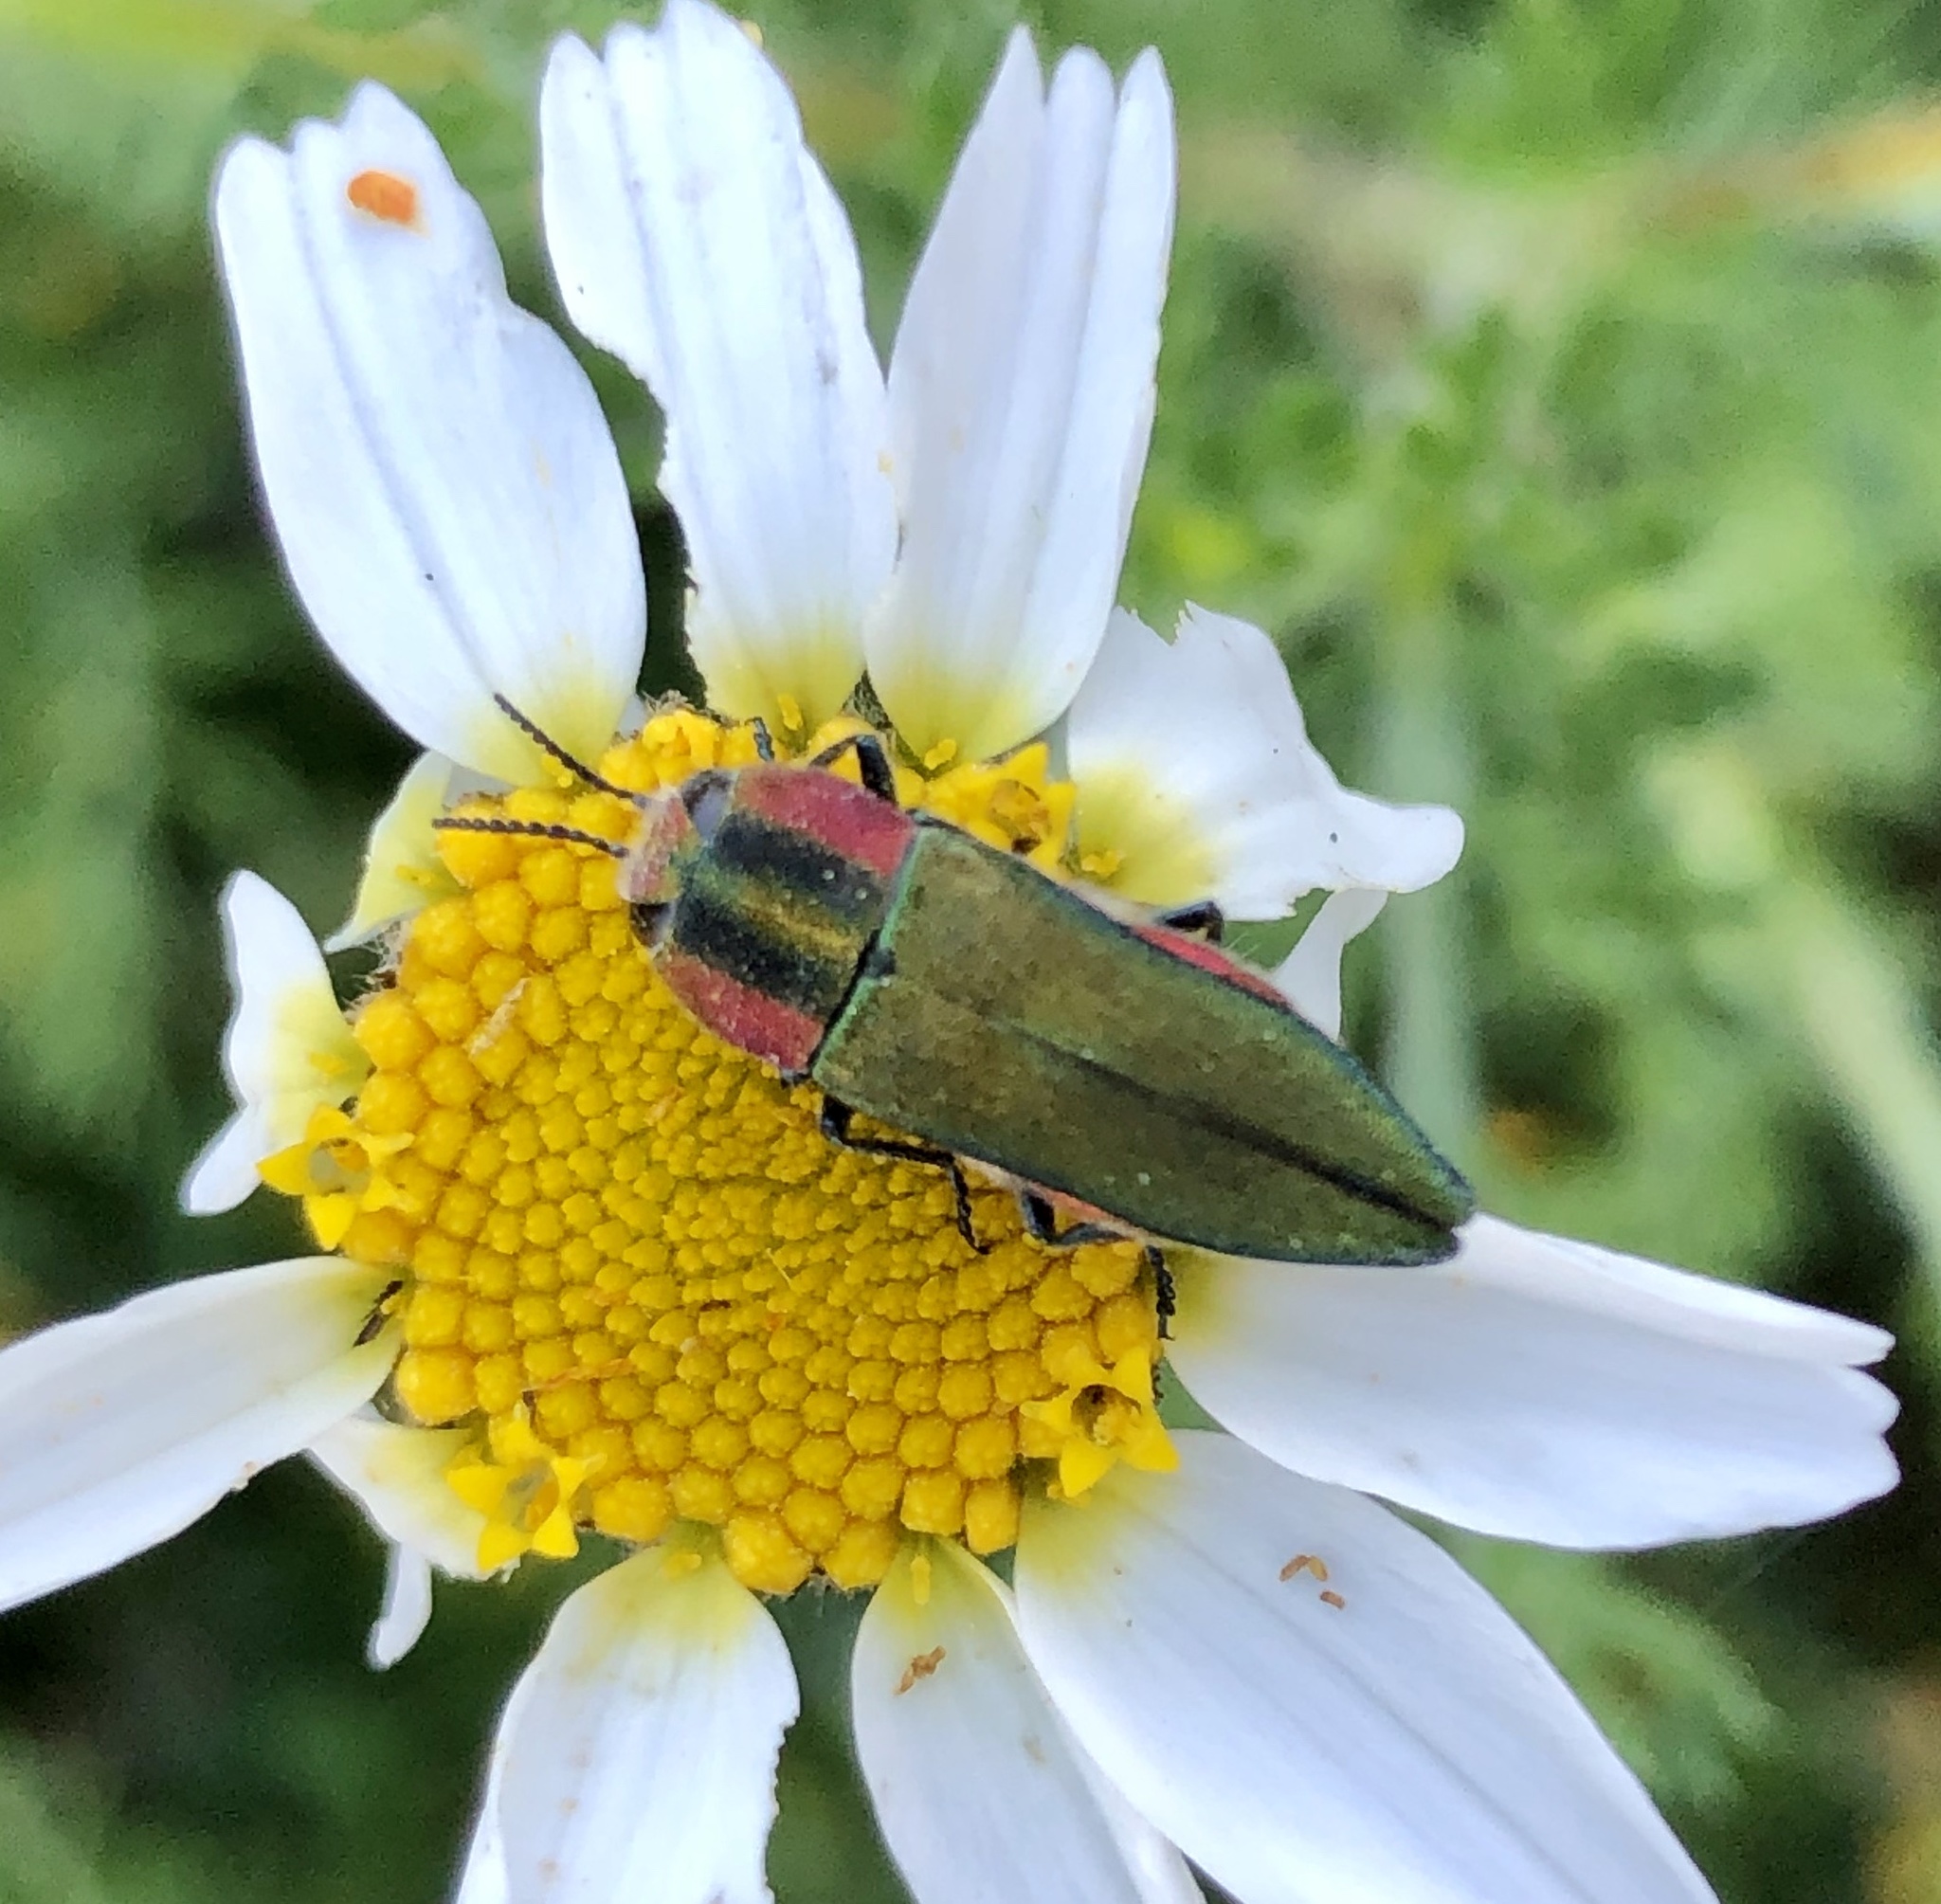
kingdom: Animalia
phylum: Arthropoda
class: Insecta
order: Coleoptera
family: Buprestidae
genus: Anthaxia
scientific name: Anthaxia hungarica
